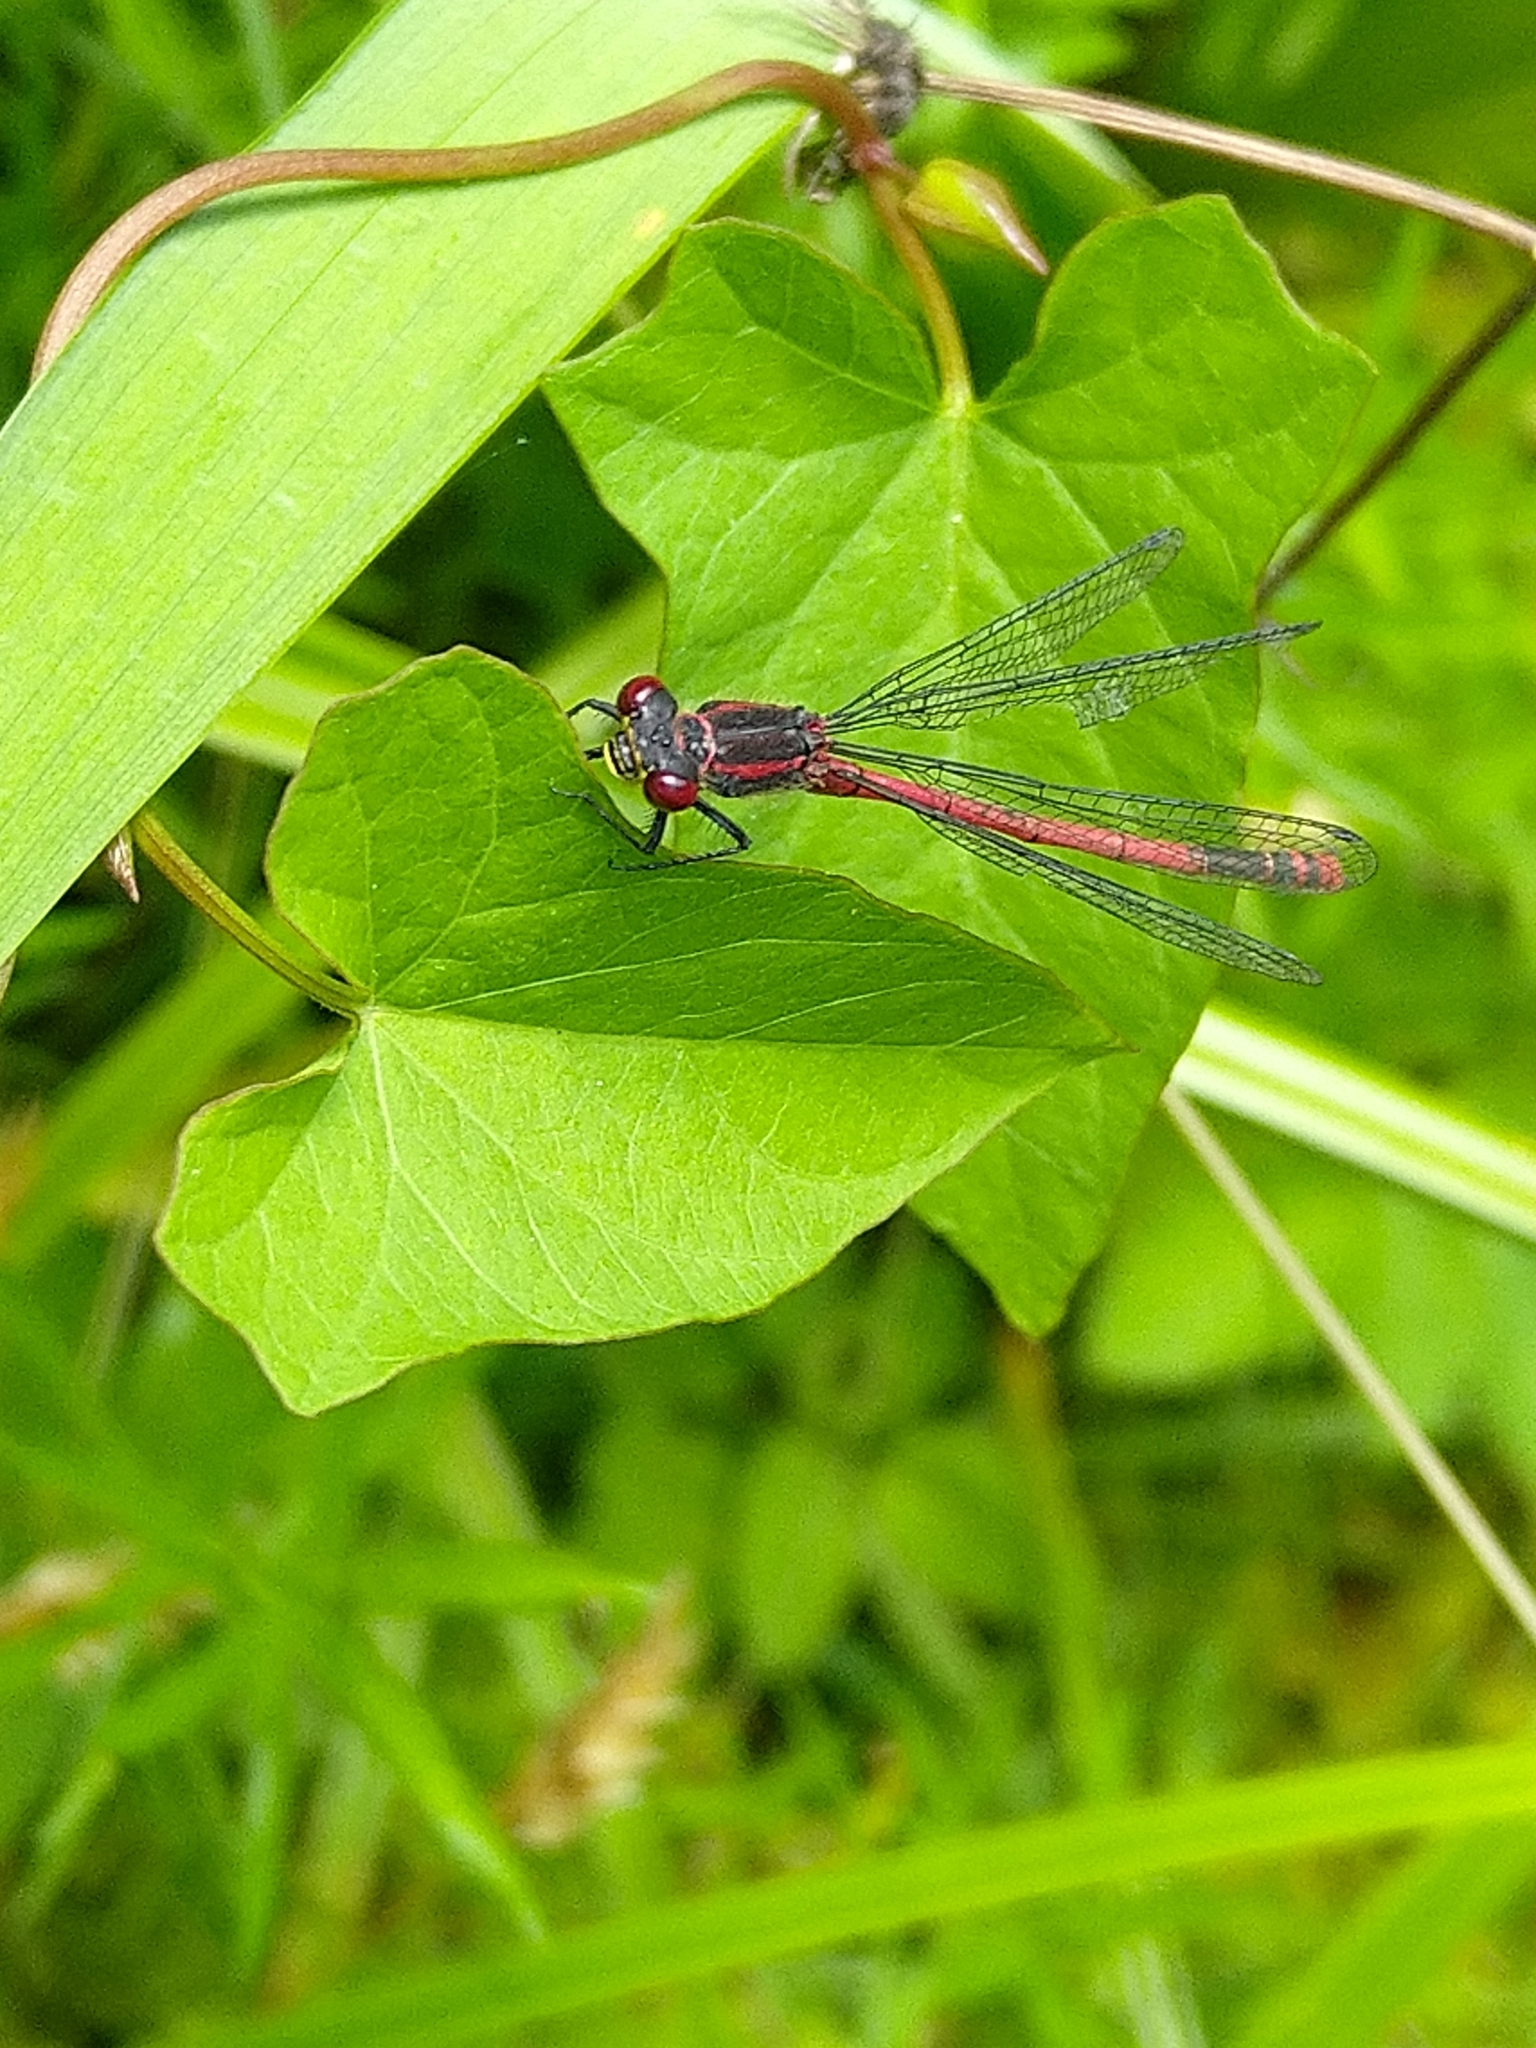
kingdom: Animalia
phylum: Arthropoda
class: Insecta
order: Odonata
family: Coenagrionidae
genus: Pyrrhosoma
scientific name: Pyrrhosoma nymphula
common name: Large red damsel
